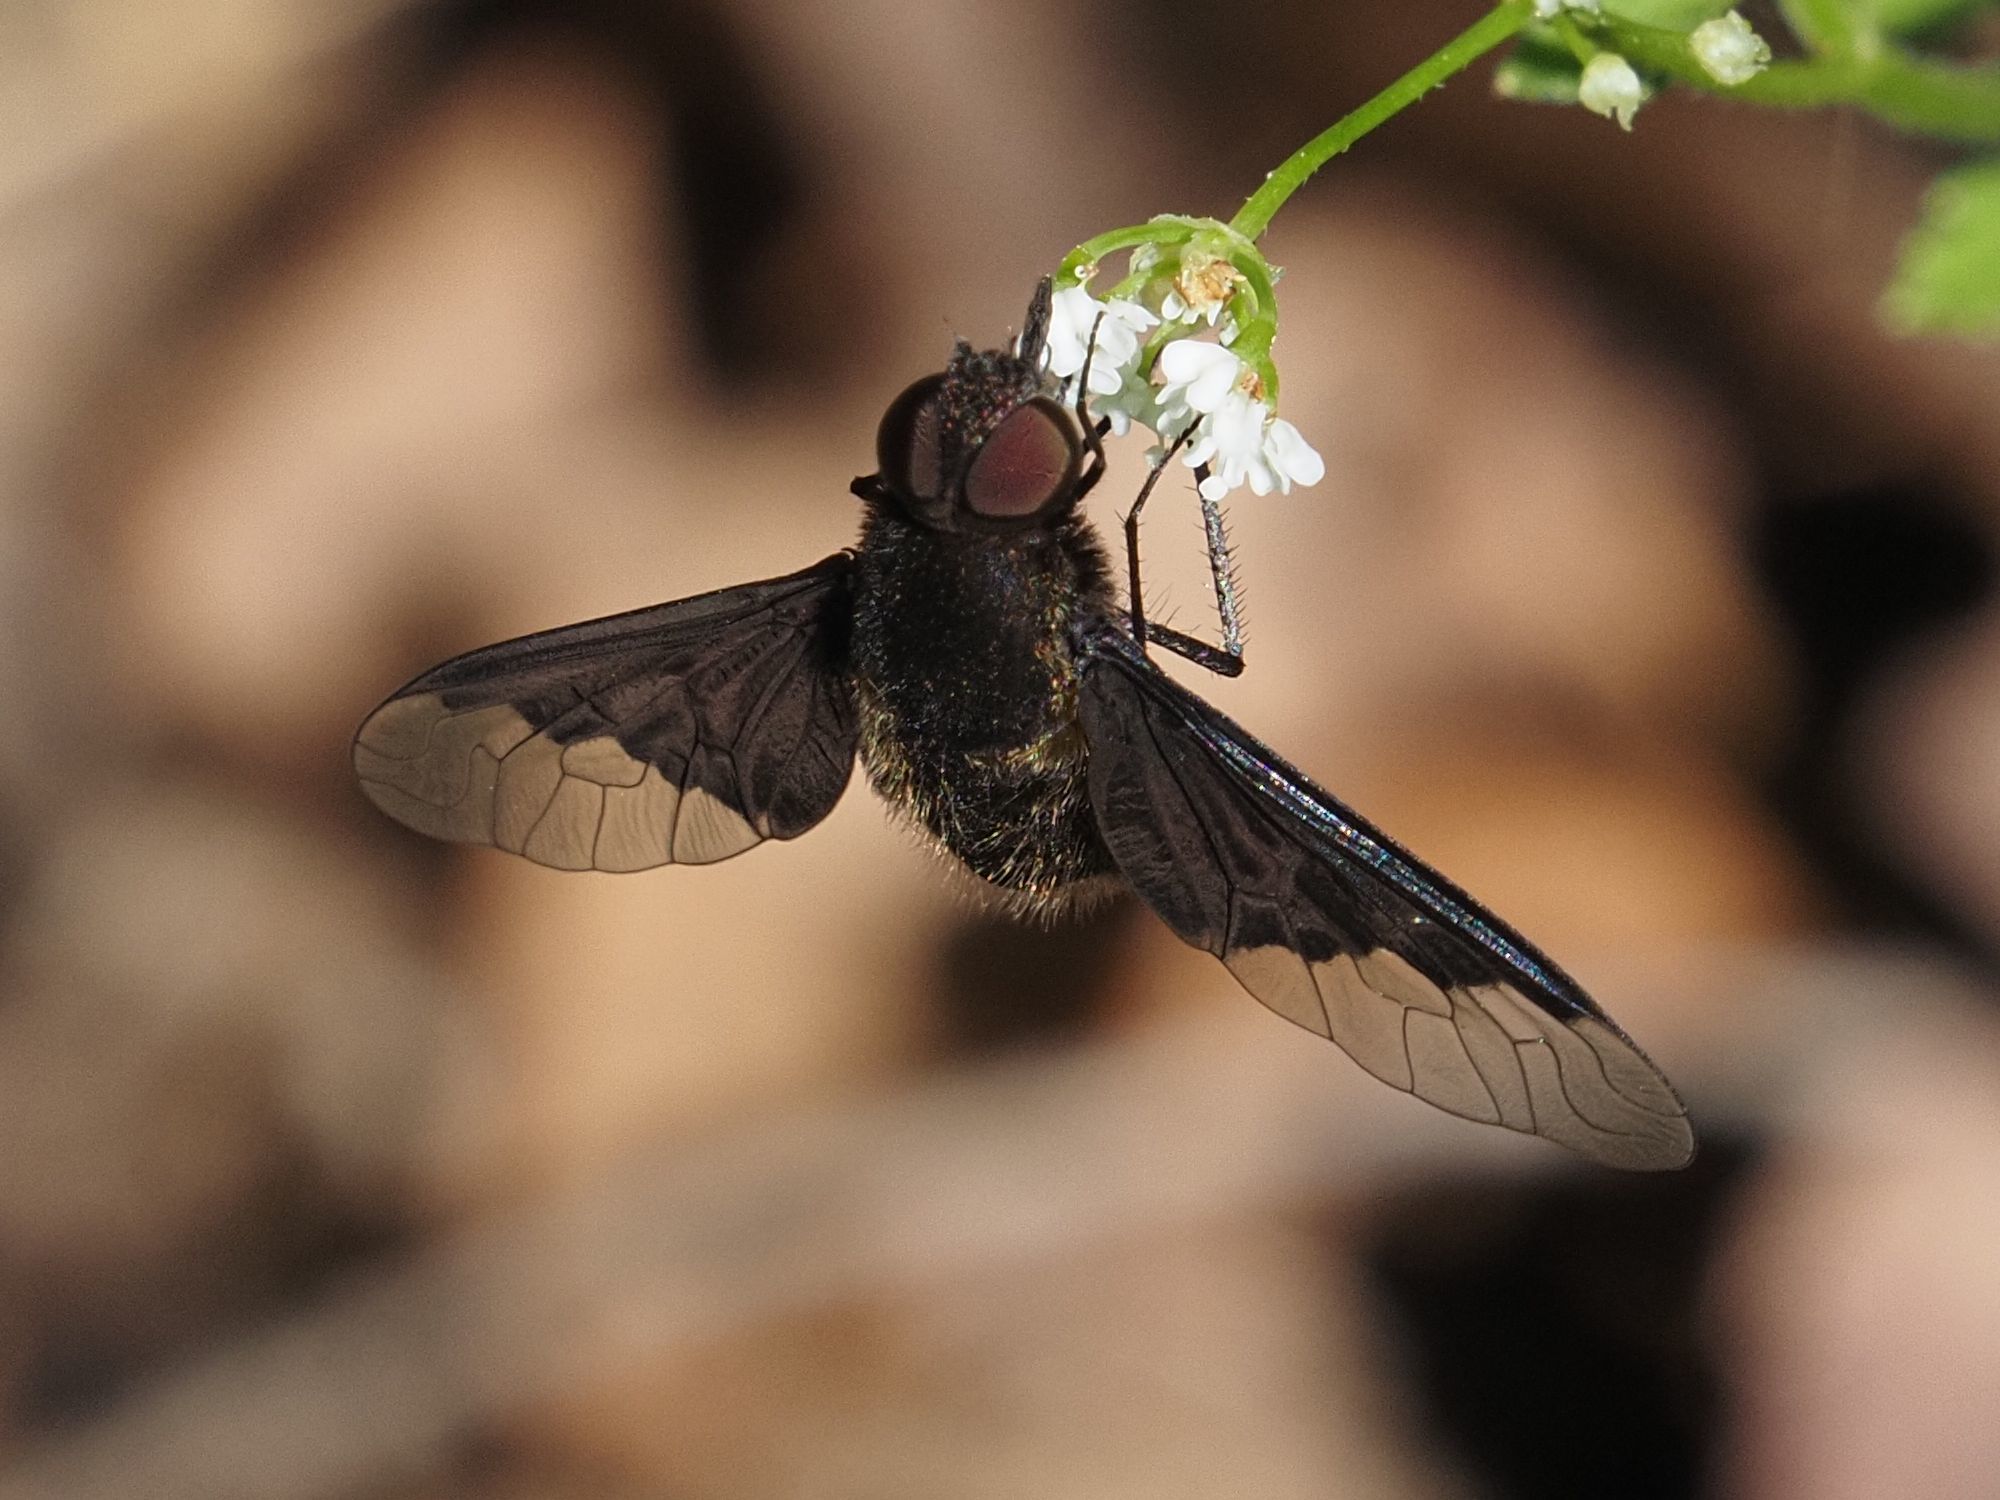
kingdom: Animalia
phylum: Arthropoda
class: Insecta
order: Diptera
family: Bombyliidae
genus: Hemipenthes
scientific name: Hemipenthes morio
